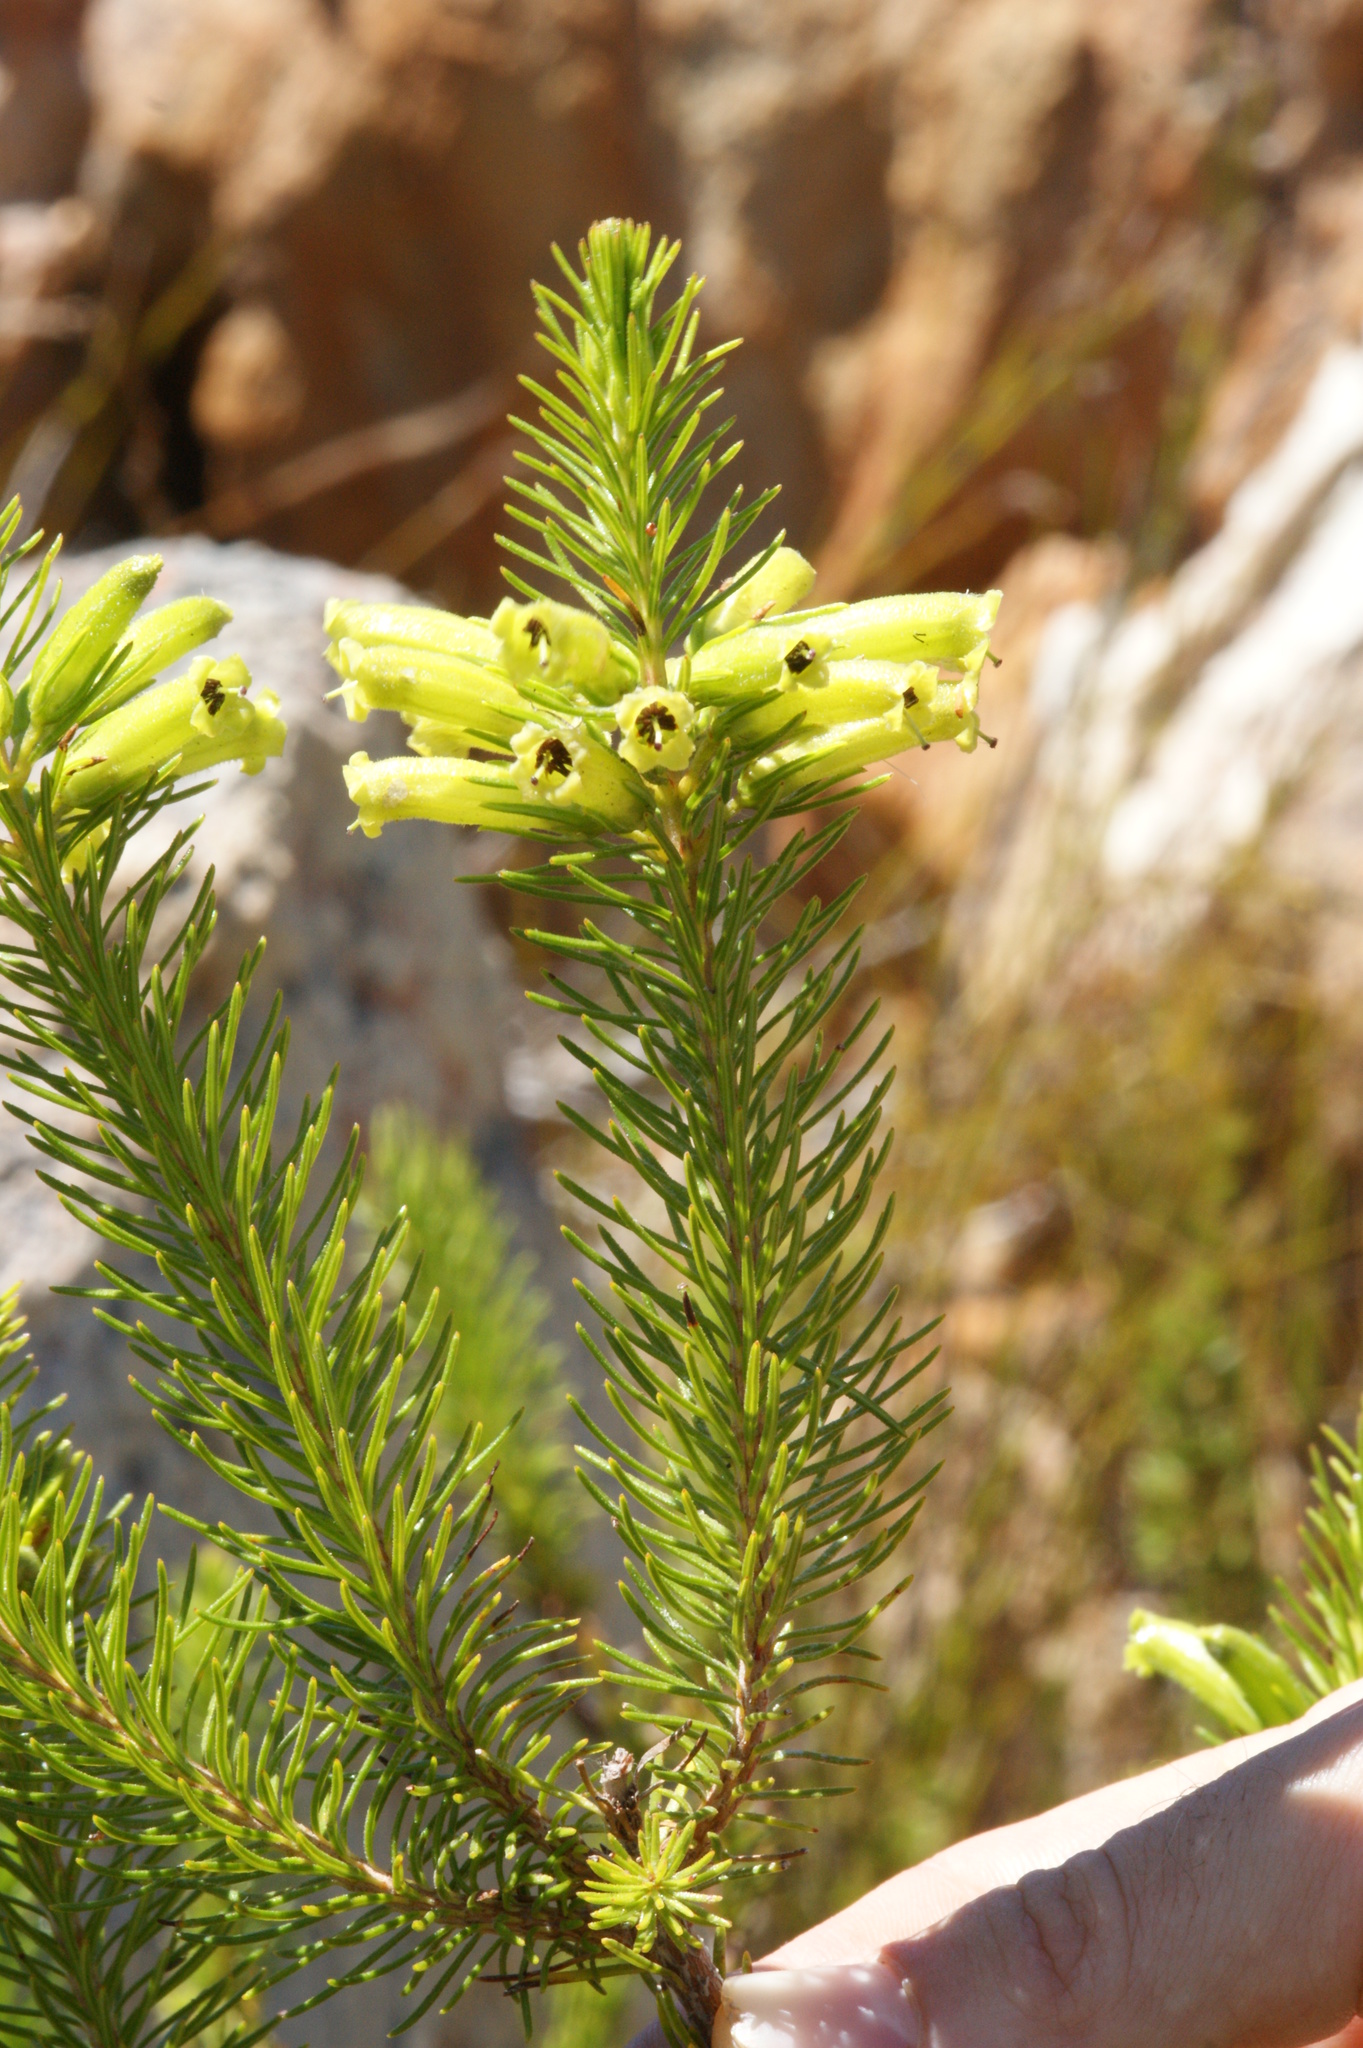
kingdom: Plantae
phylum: Tracheophyta
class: Magnoliopsida
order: Ericales
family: Ericaceae
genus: Erica
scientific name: Erica viscaria
